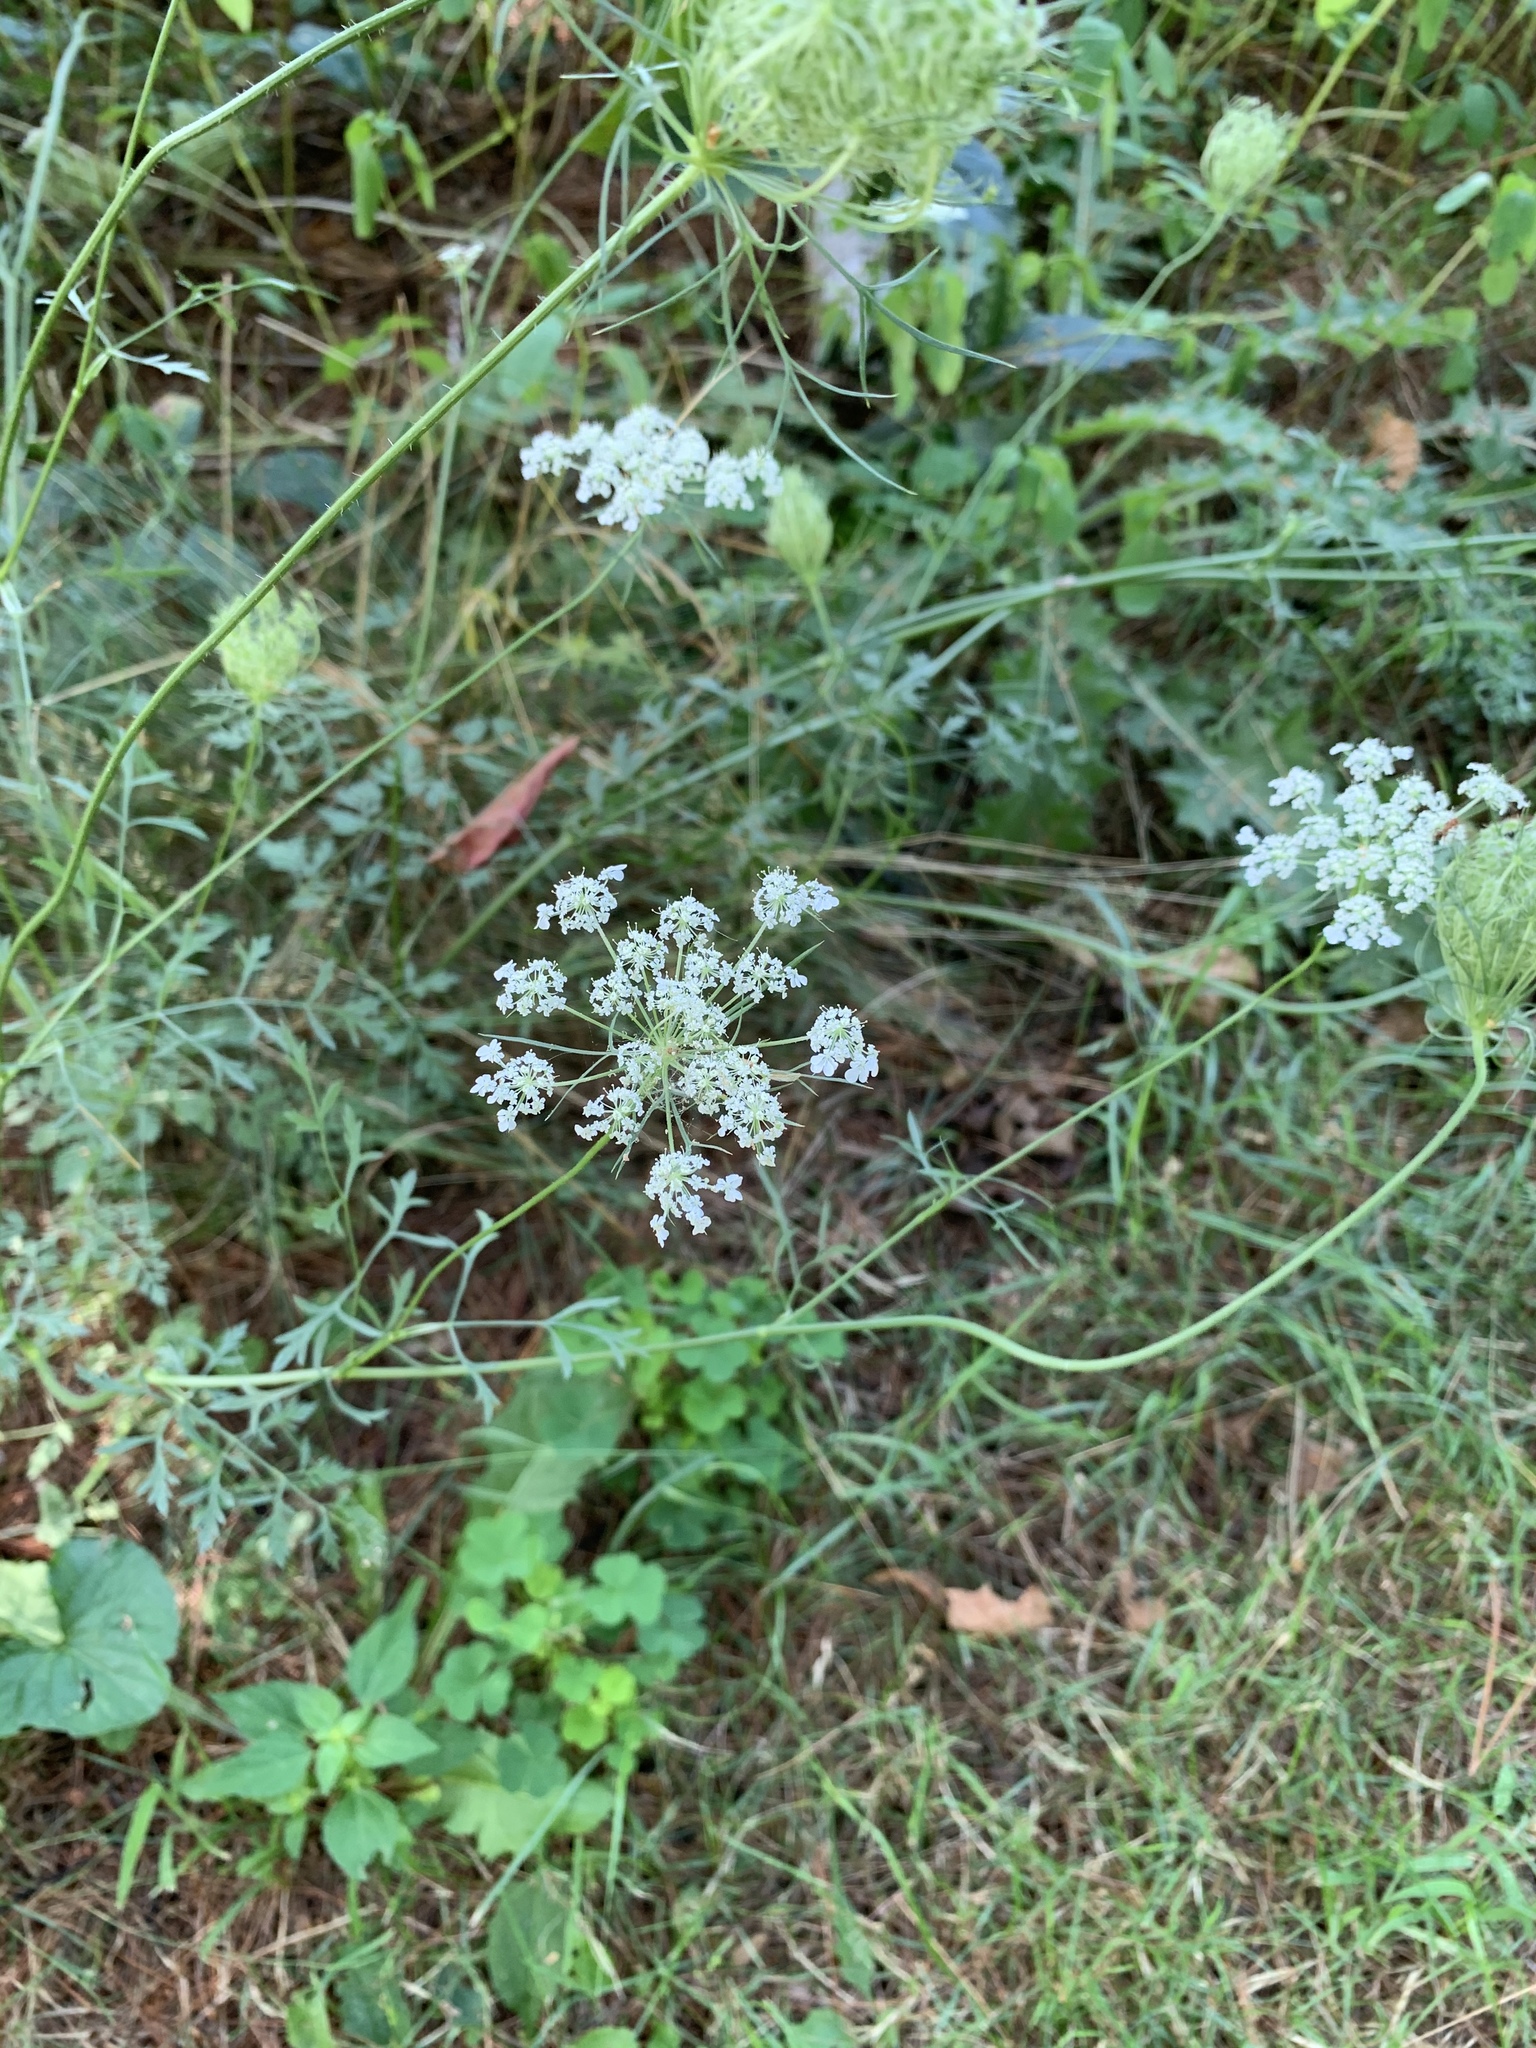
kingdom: Plantae
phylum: Tracheophyta
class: Magnoliopsida
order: Apiales
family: Apiaceae
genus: Daucus
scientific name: Daucus carota
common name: Wild carrot
